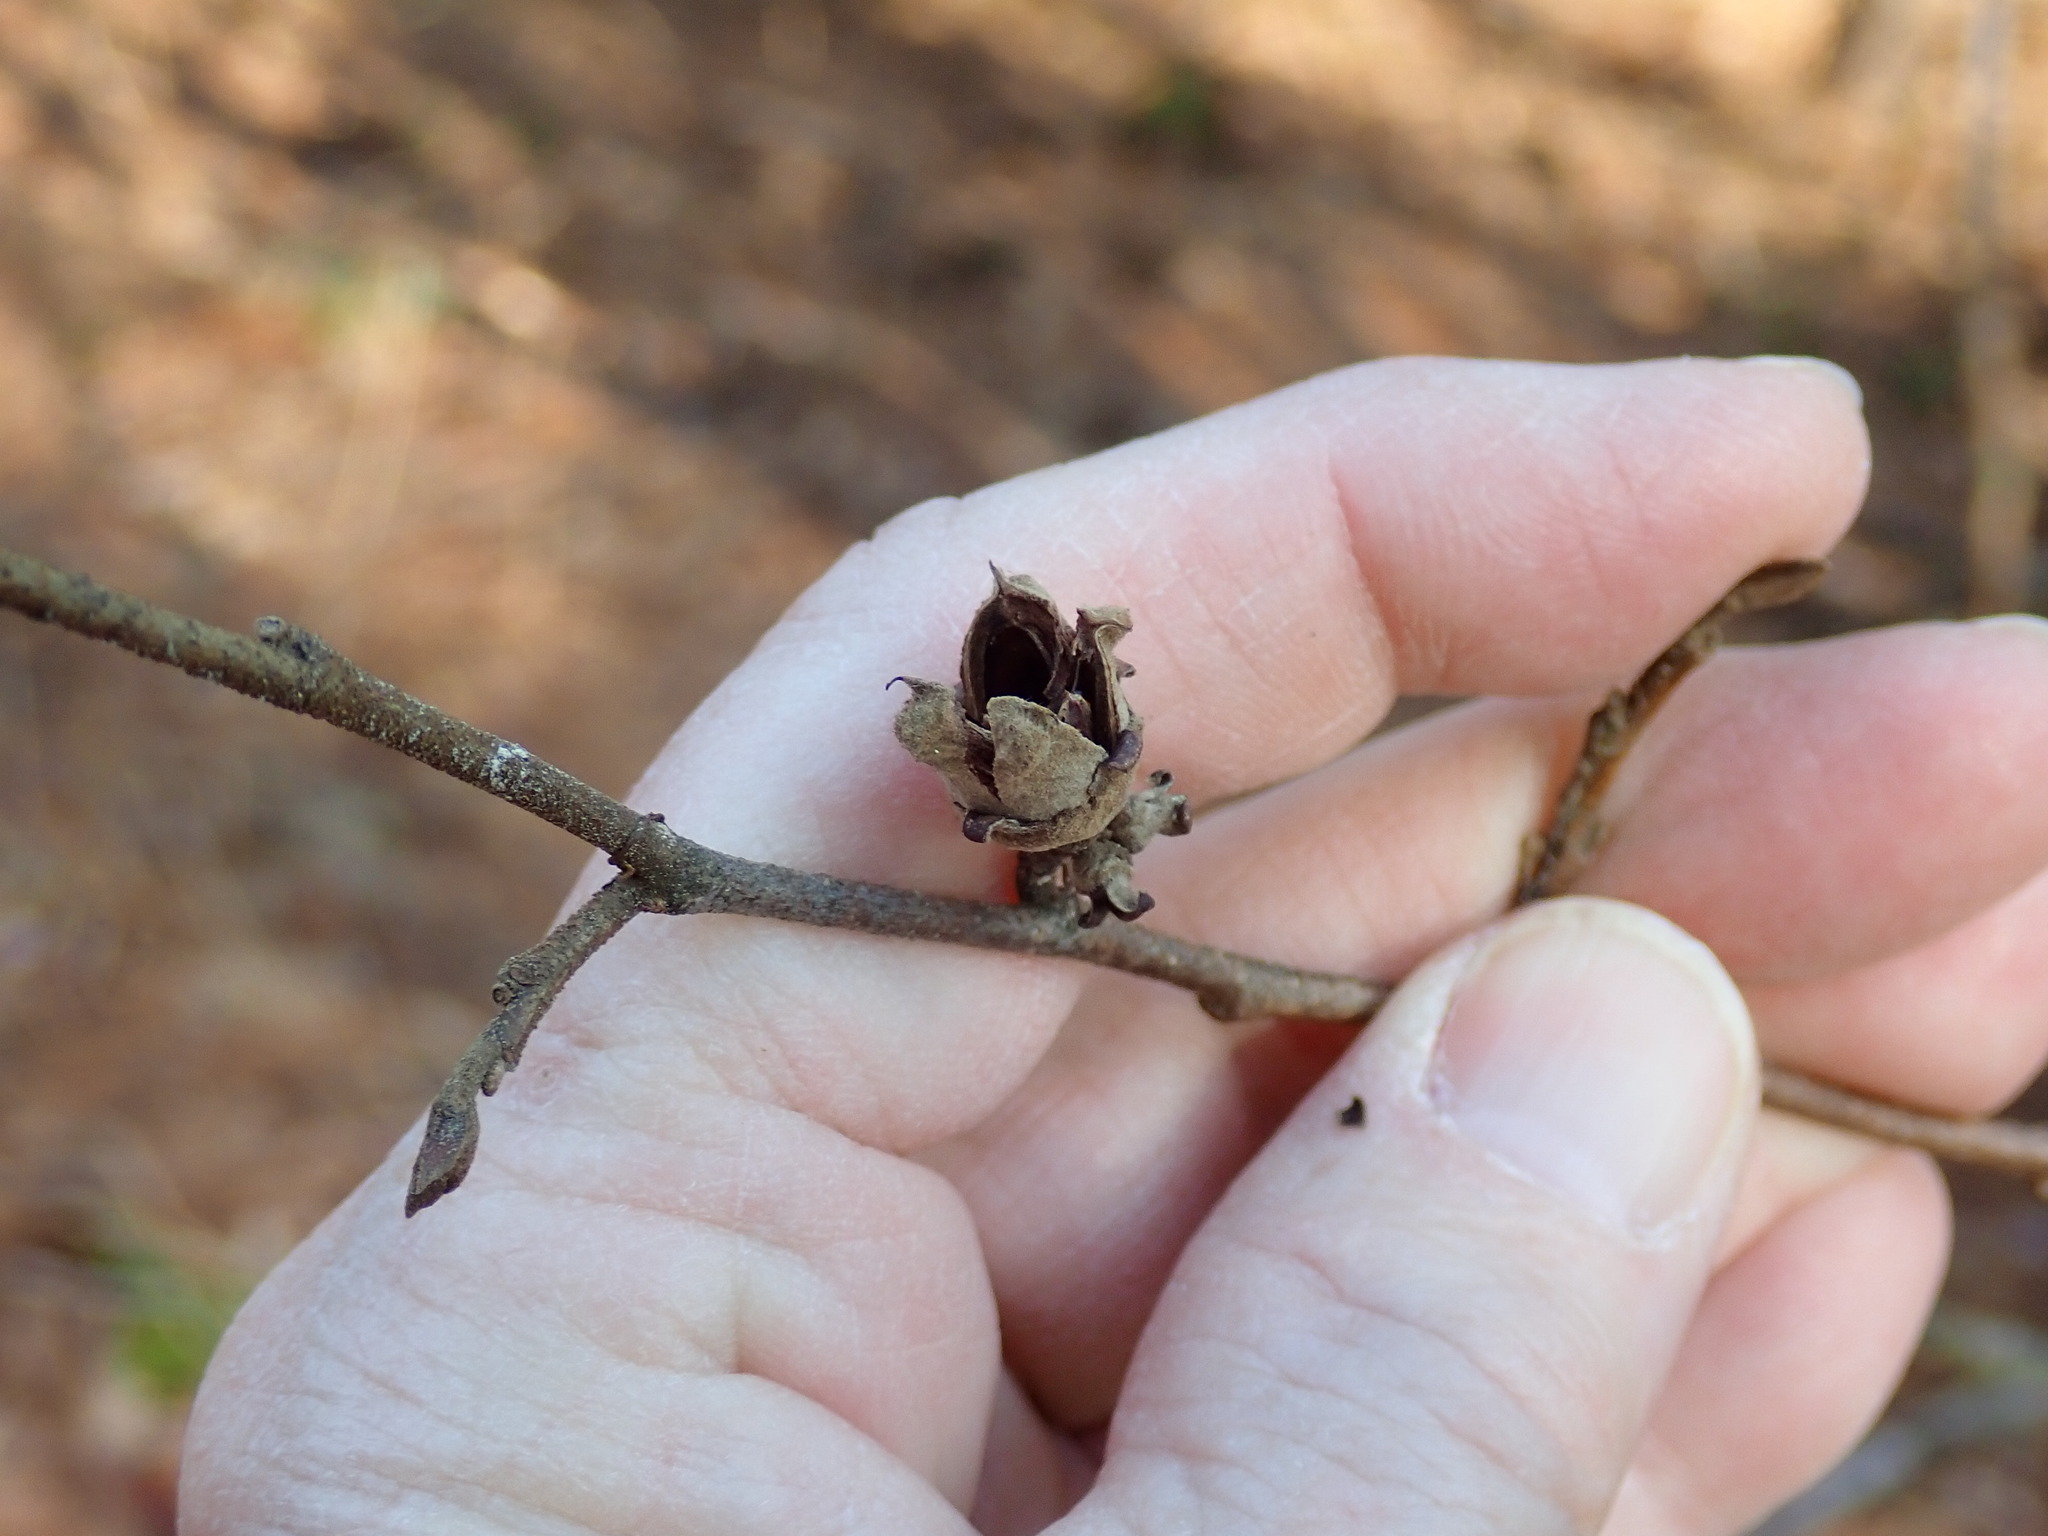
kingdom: Plantae
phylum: Tracheophyta
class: Magnoliopsida
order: Saxifragales
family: Hamamelidaceae
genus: Hamamelis
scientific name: Hamamelis virginiana
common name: Witch-hazel
